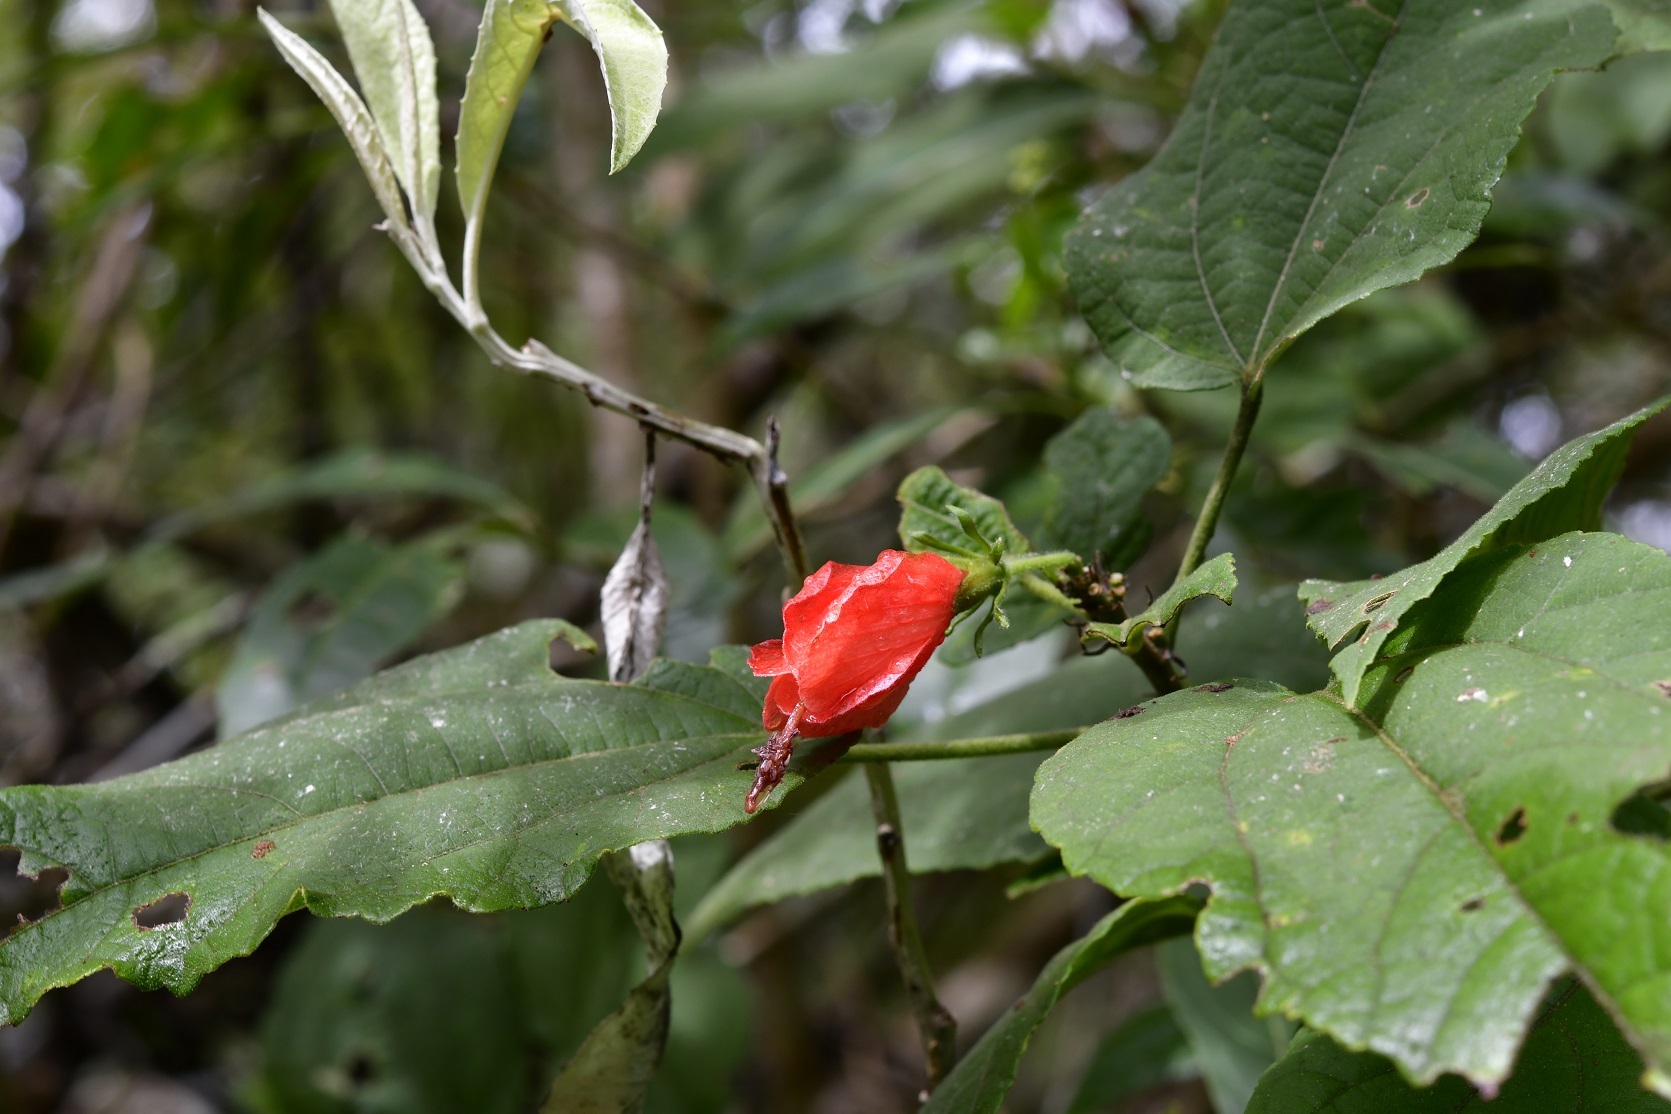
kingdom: Plantae
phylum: Tracheophyta
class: Magnoliopsida
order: Malvales
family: Malvaceae
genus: Malvaviscus
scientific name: Malvaviscus arboreus
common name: Wax mallow
